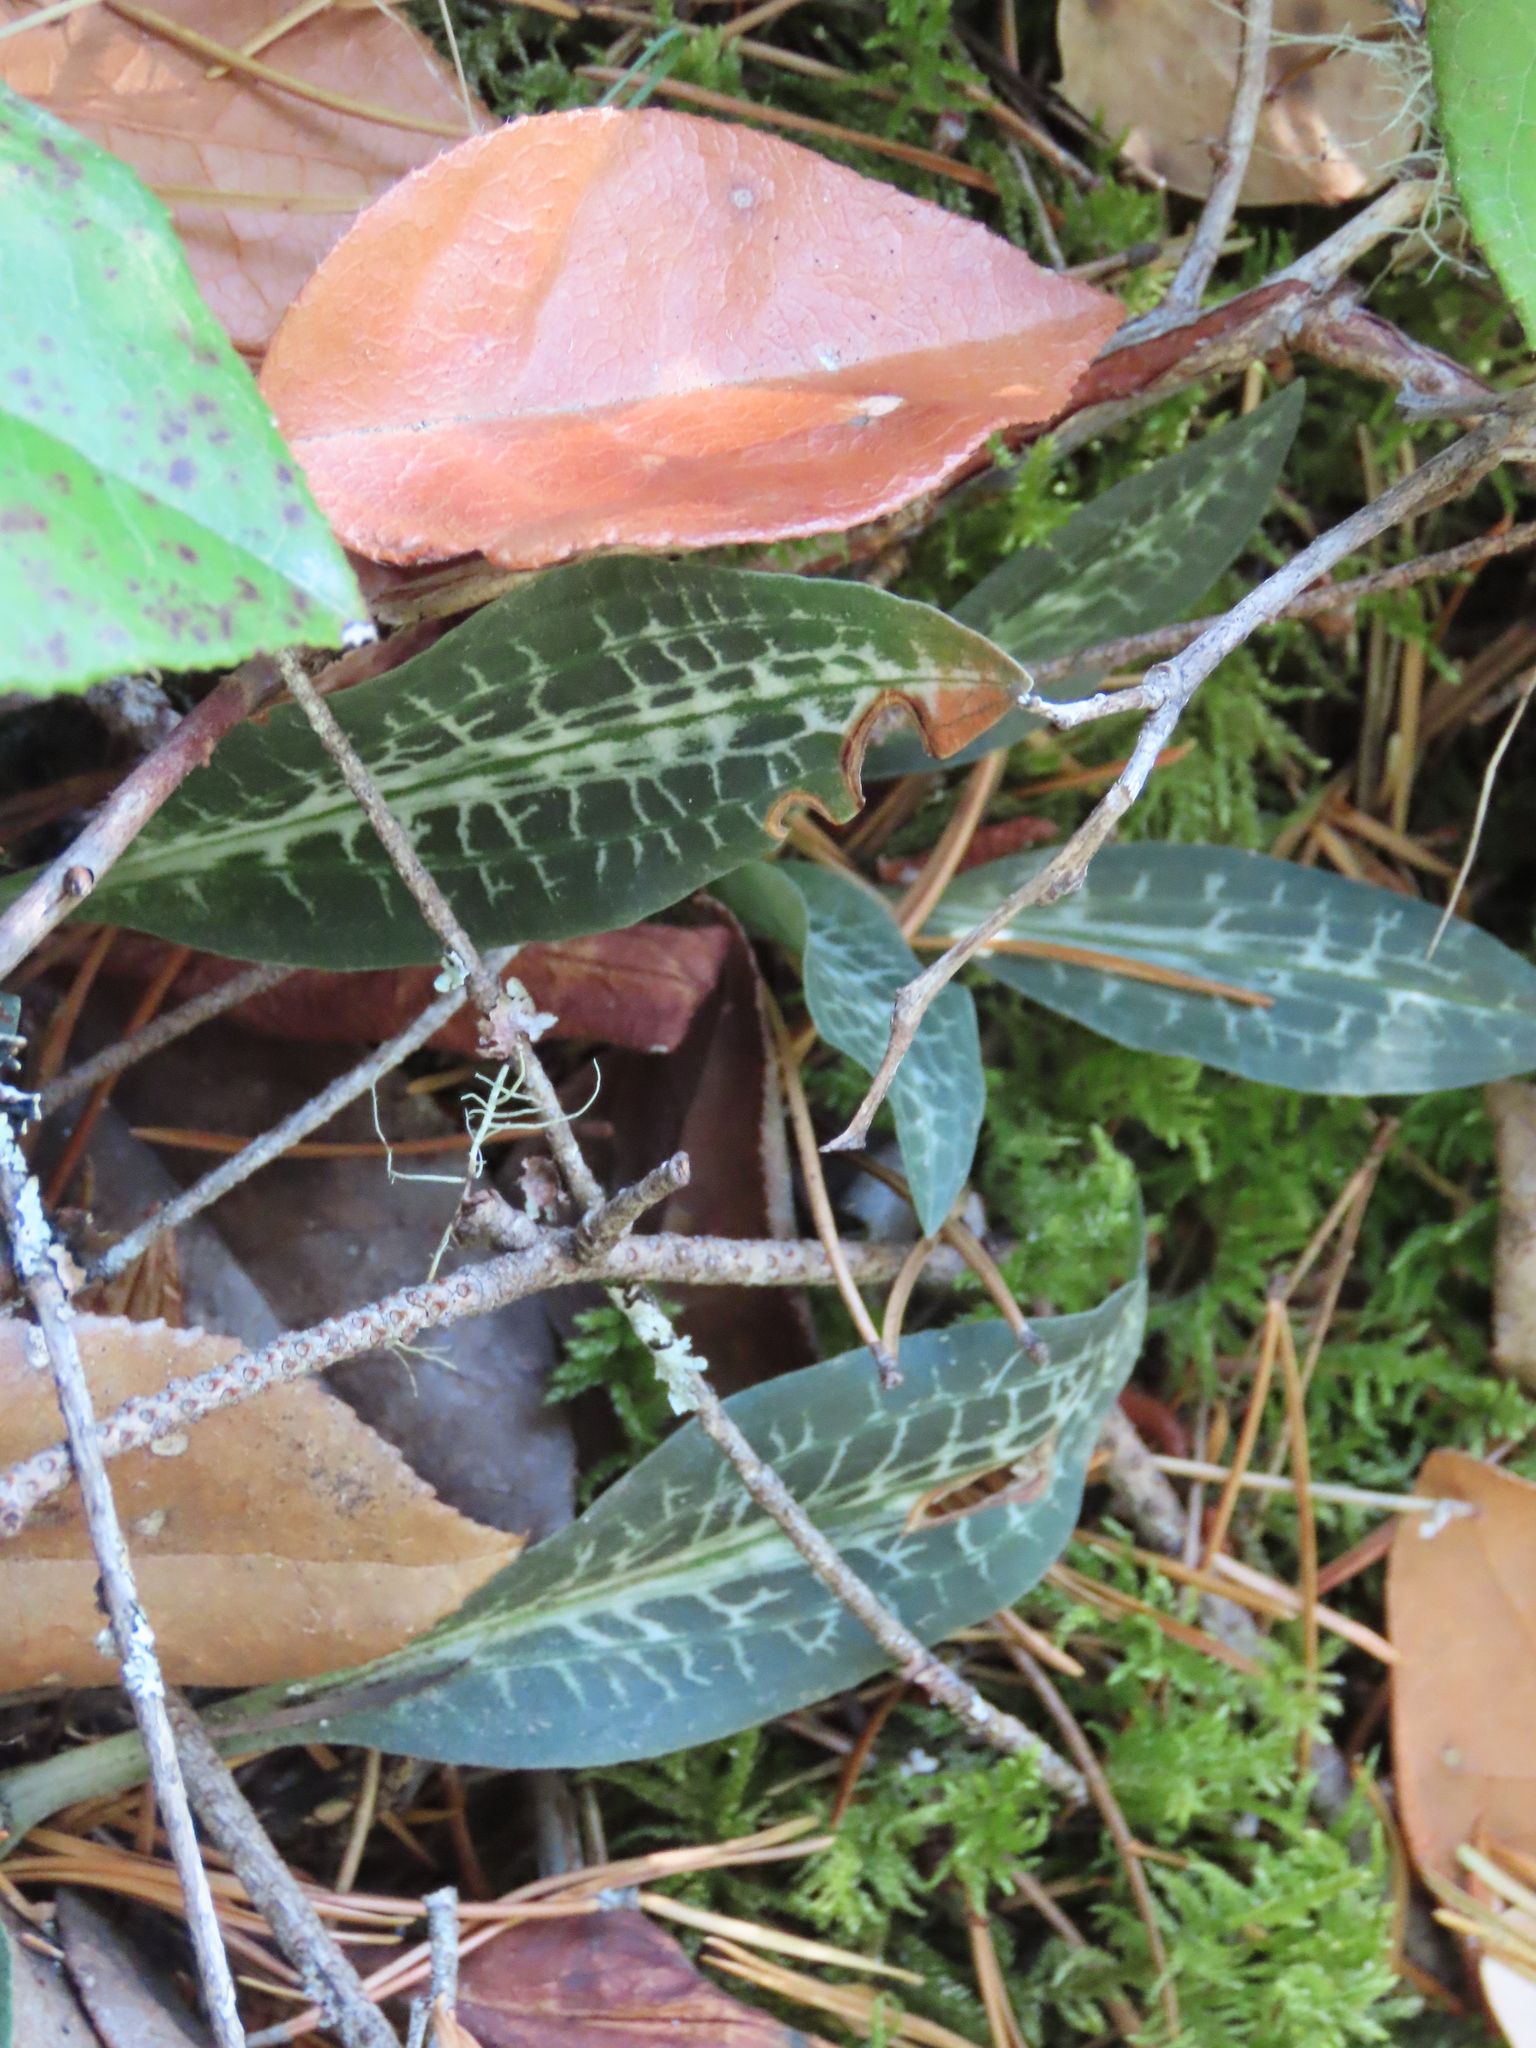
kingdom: Plantae
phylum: Tracheophyta
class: Liliopsida
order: Asparagales
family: Orchidaceae
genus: Goodyera
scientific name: Goodyera oblongifolia
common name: Giant rattlesnake-plantain
